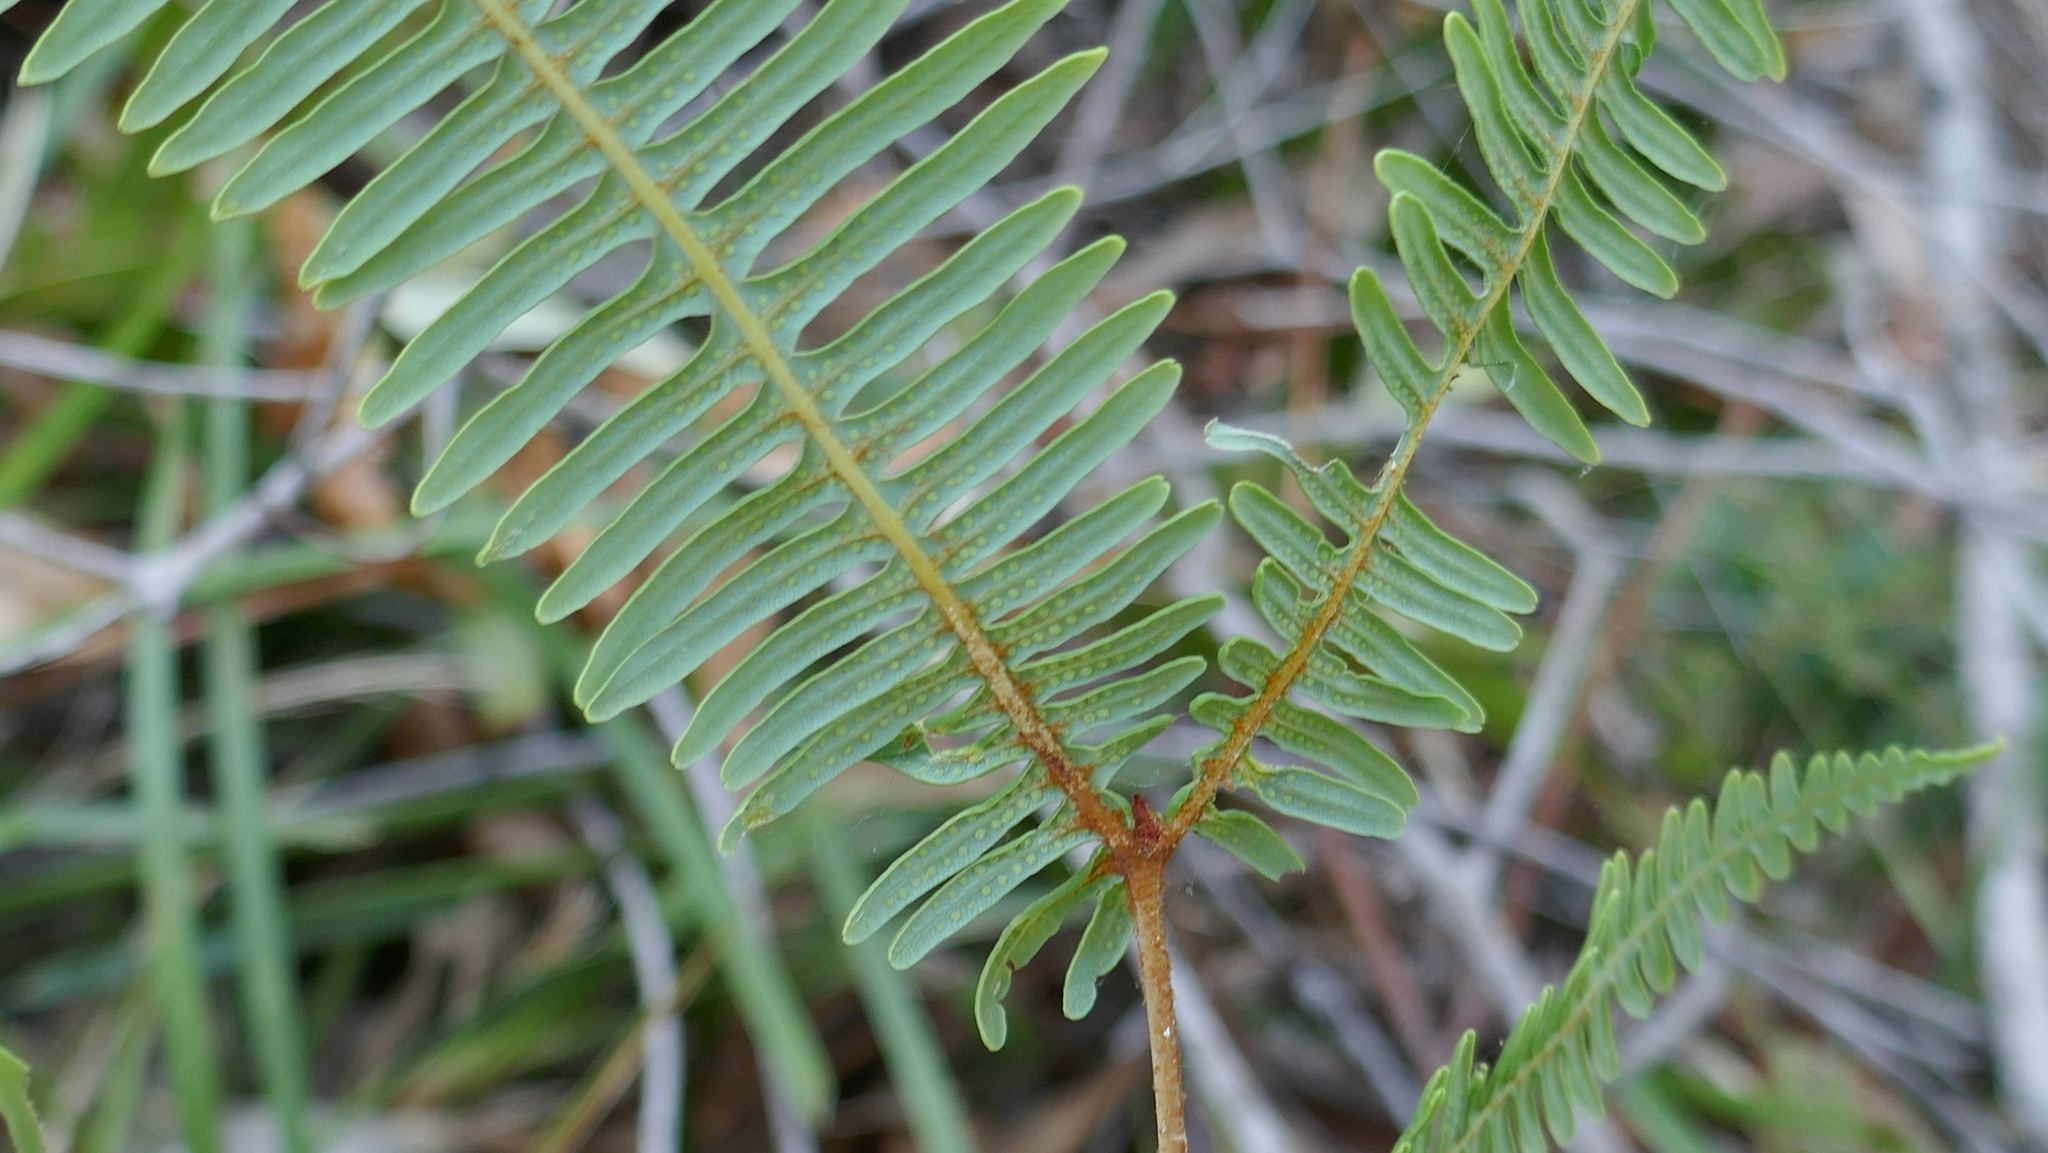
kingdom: Plantae
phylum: Tracheophyta
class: Polypodiopsida
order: Gleicheniales
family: Gleicheniaceae
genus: Dicranopteris
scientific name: Dicranopteris linearis
